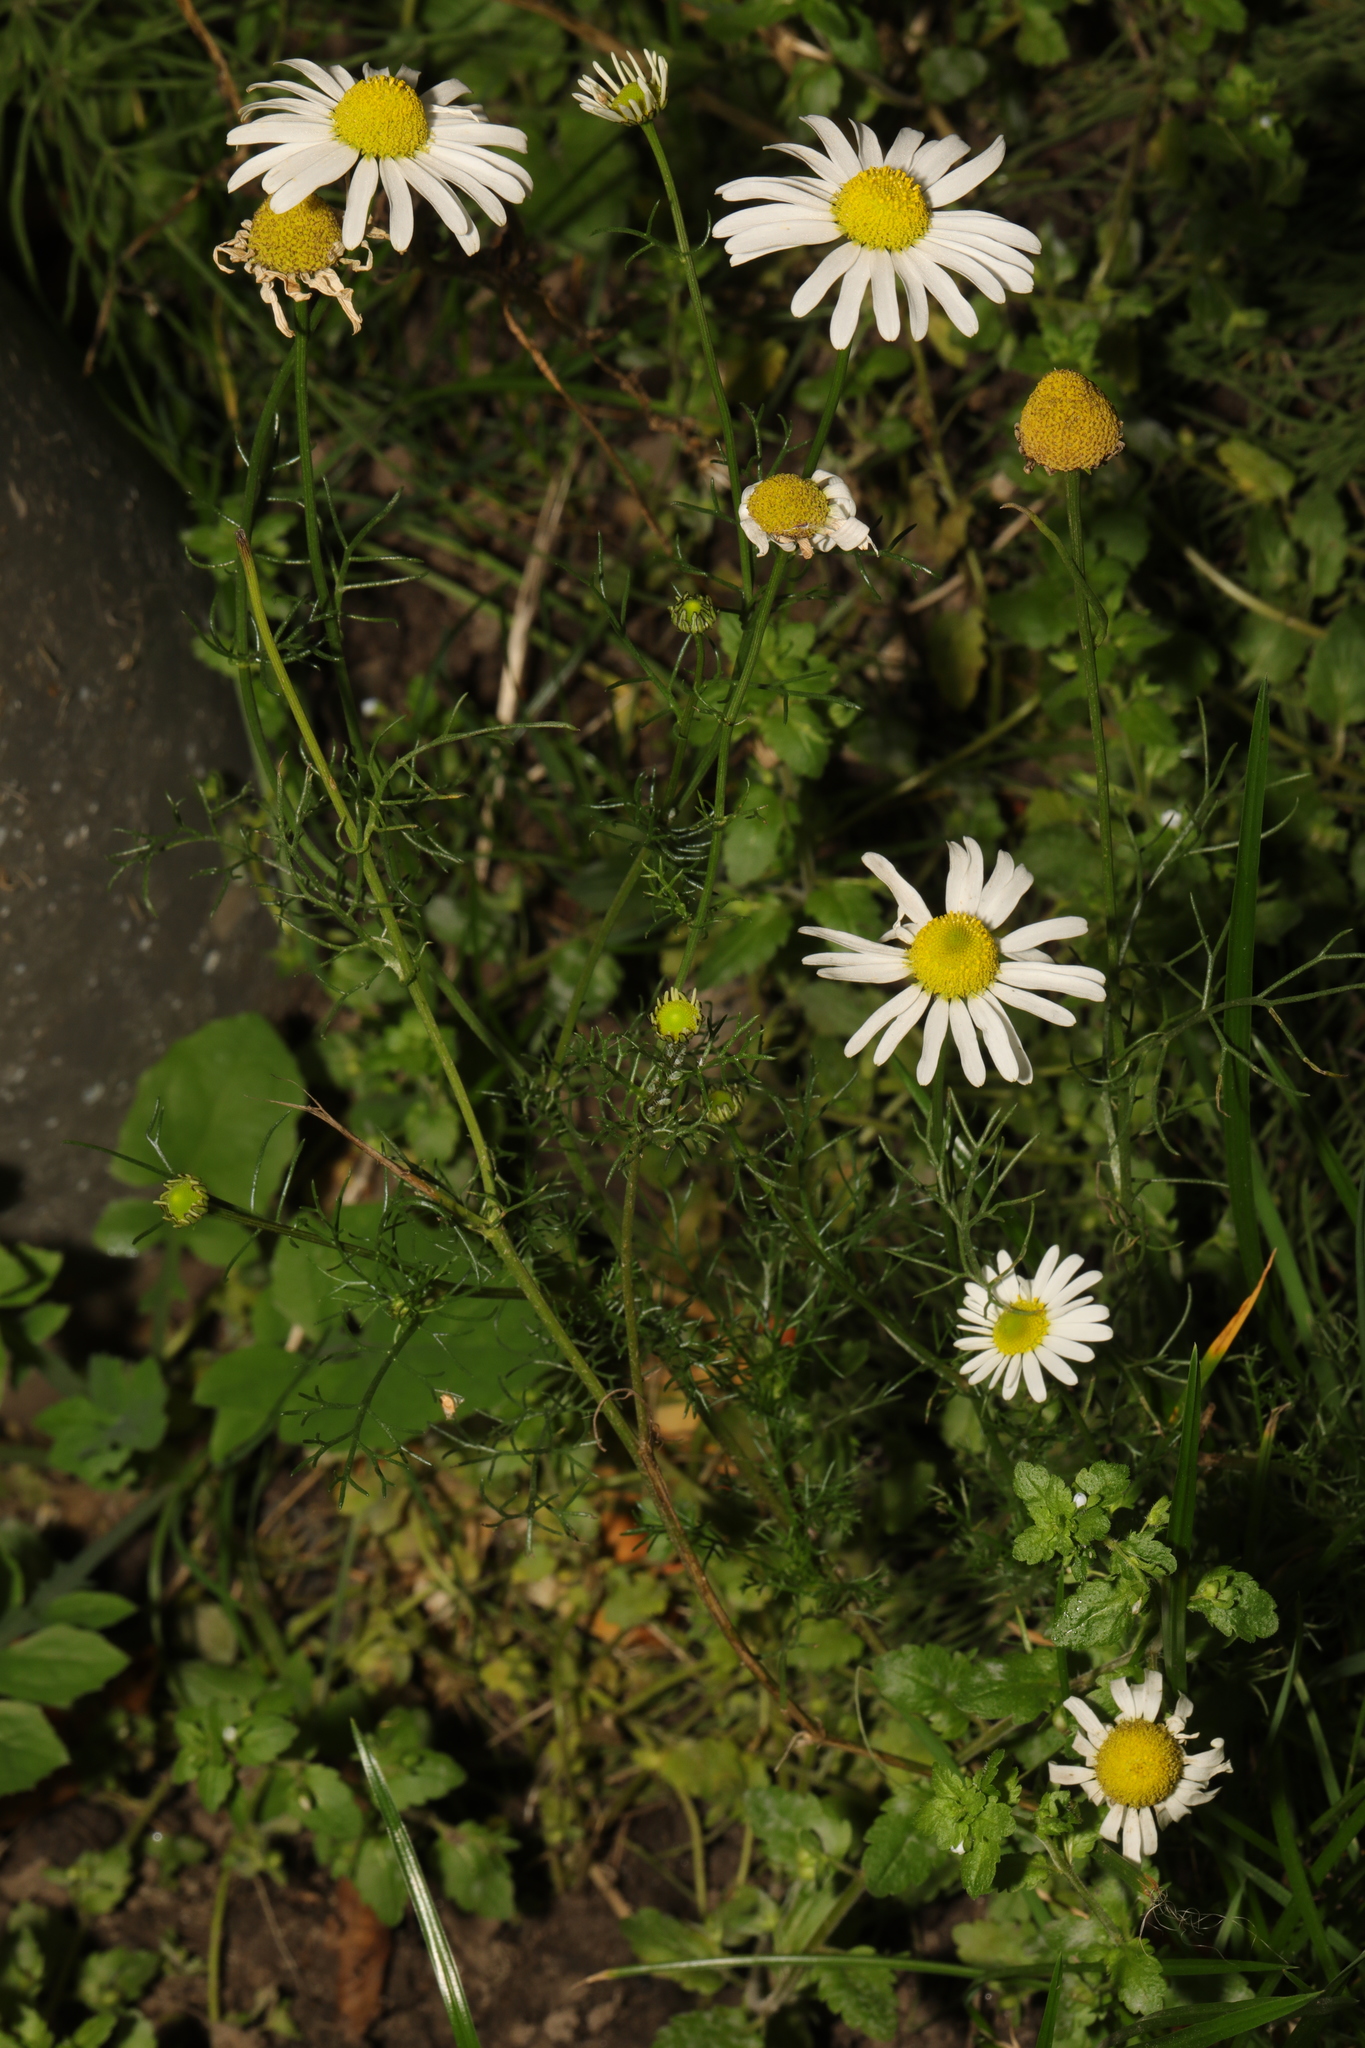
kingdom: Plantae
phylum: Tracheophyta
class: Magnoliopsida
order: Asterales
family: Asteraceae
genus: Tripleurospermum
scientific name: Tripleurospermum inodorum
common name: Scentless mayweed
